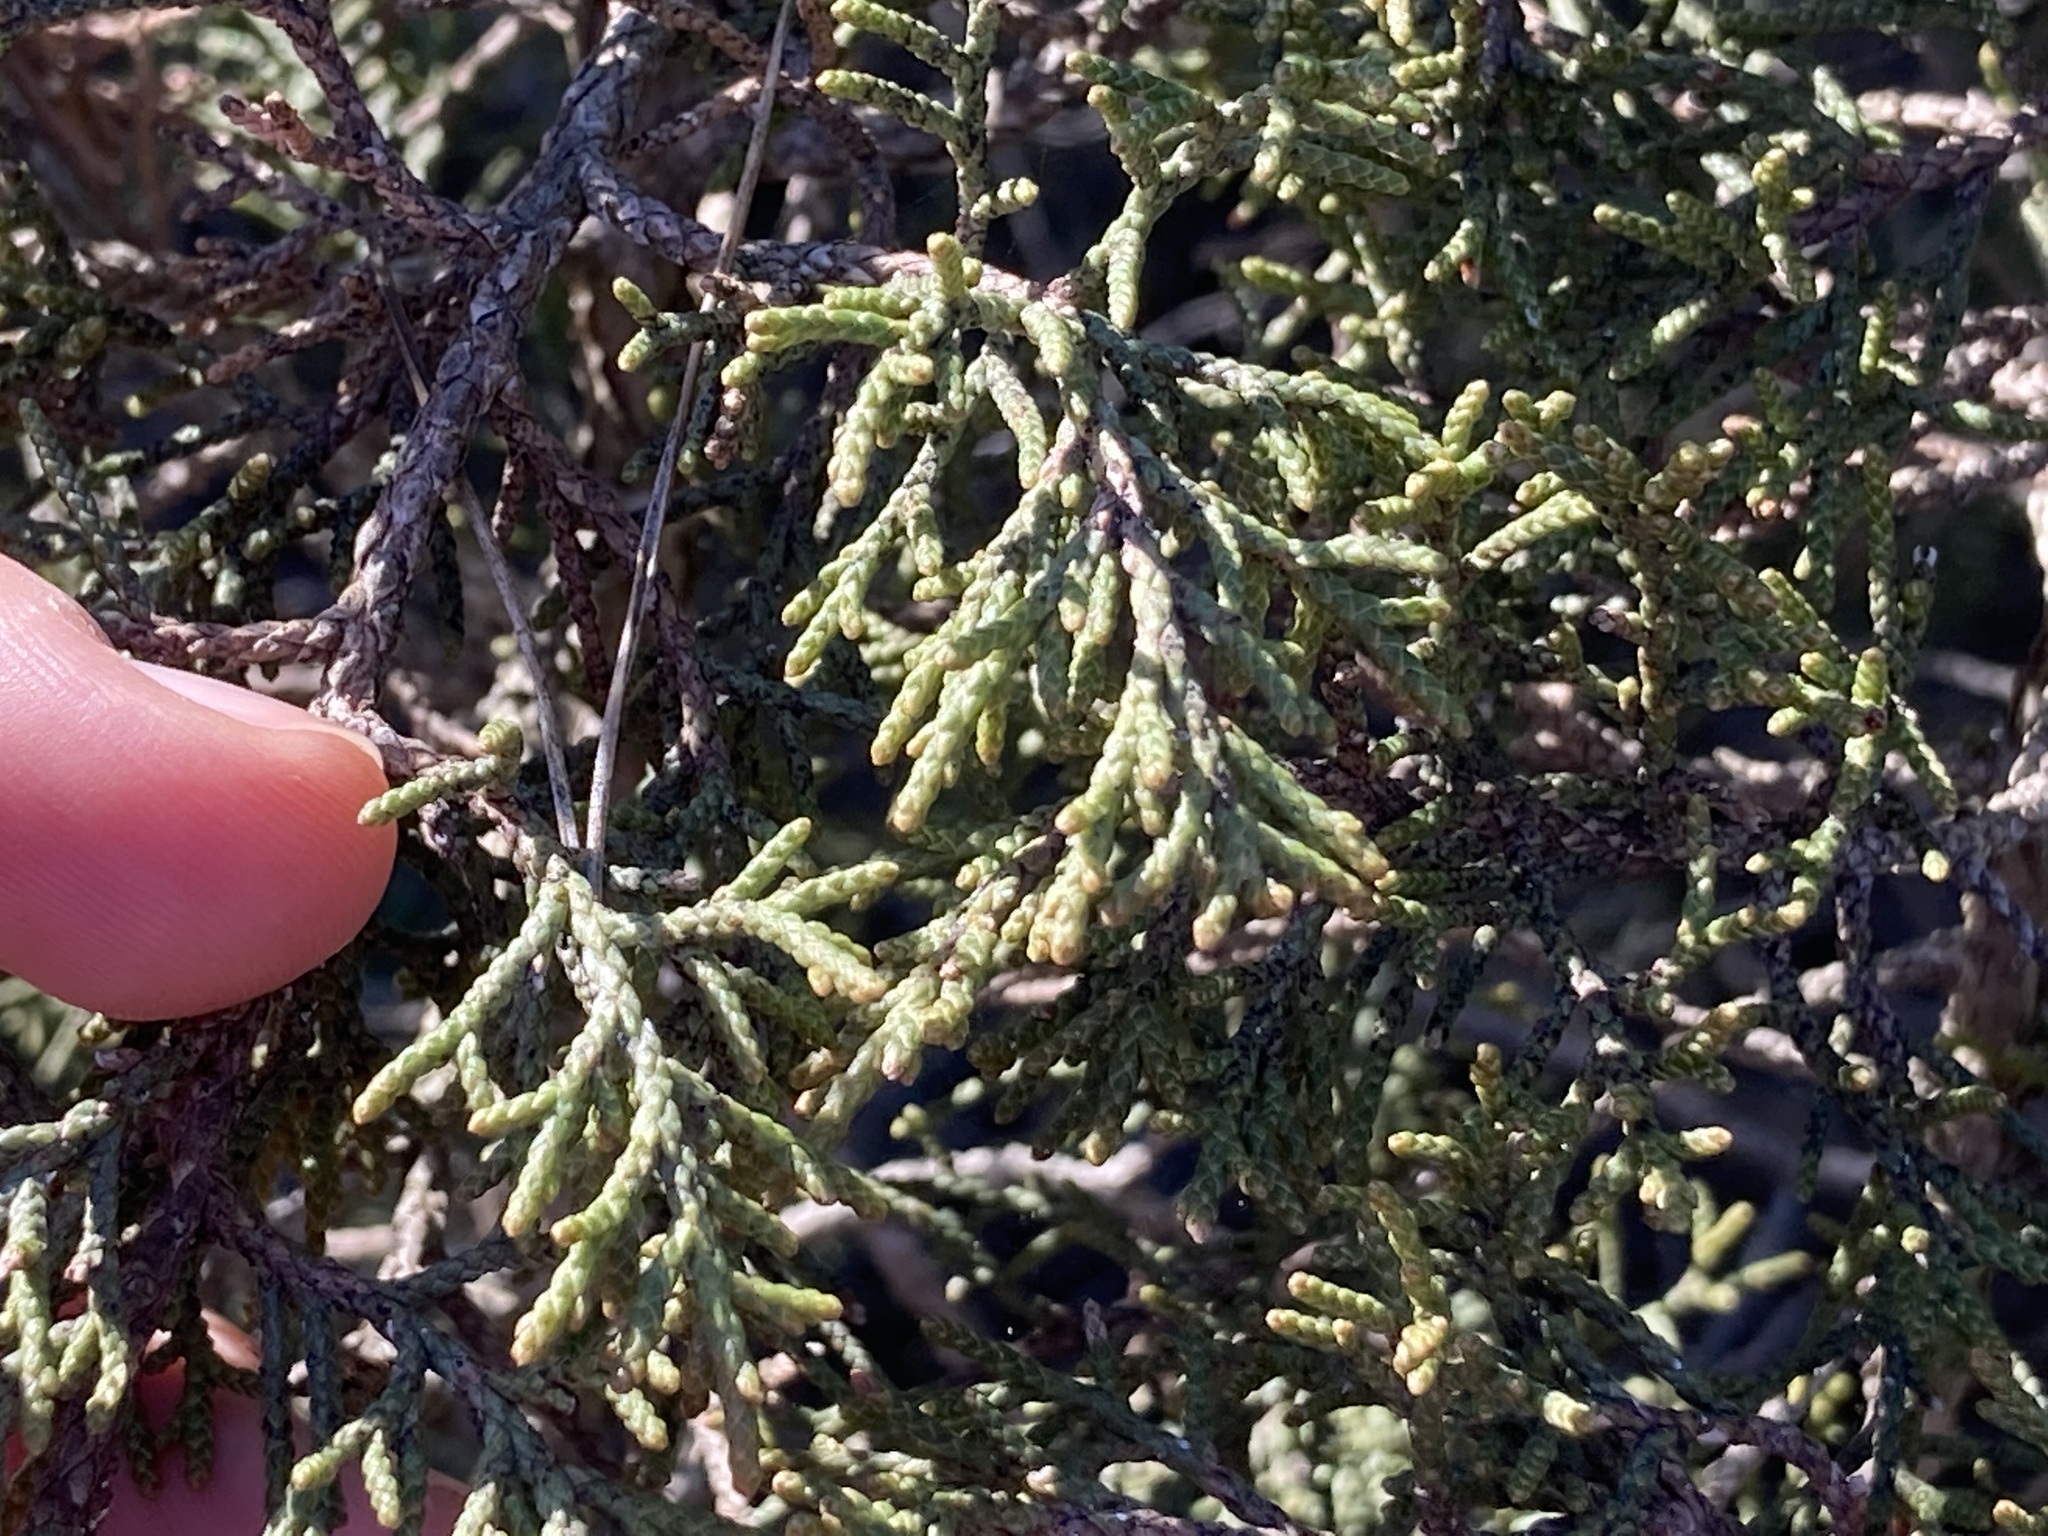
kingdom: Plantae
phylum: Tracheophyta
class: Pinopsida
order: Pinales
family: Cupressaceae
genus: Juniperus
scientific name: Juniperus phoenicea
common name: Phoenician juniper
